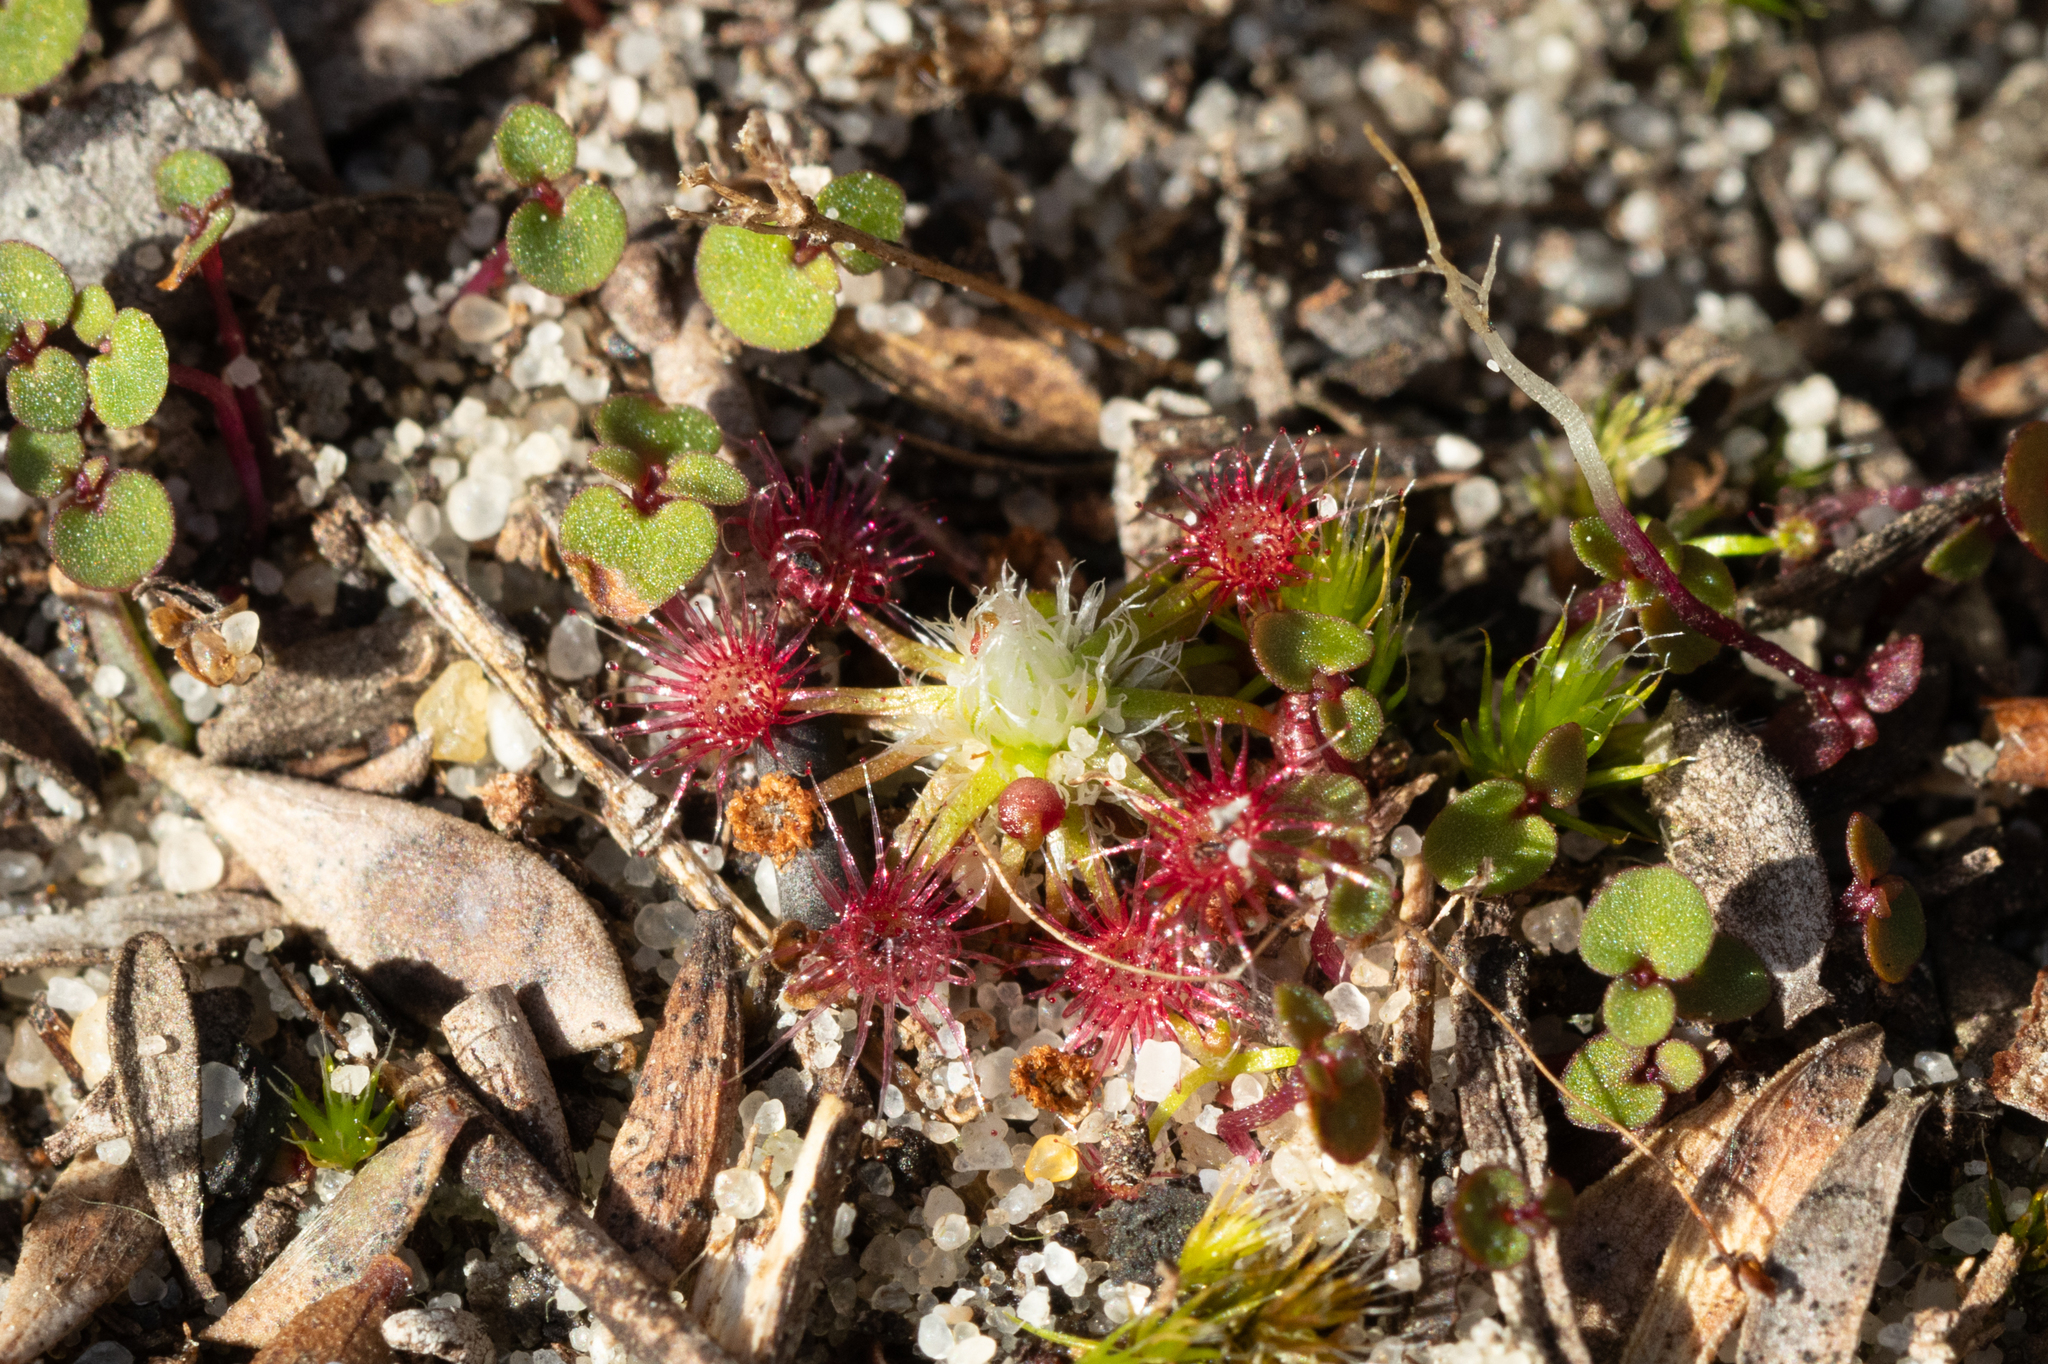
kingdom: Plantae
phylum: Tracheophyta
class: Magnoliopsida
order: Caryophyllales
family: Droseraceae
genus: Drosera
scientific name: Drosera pygmaea
